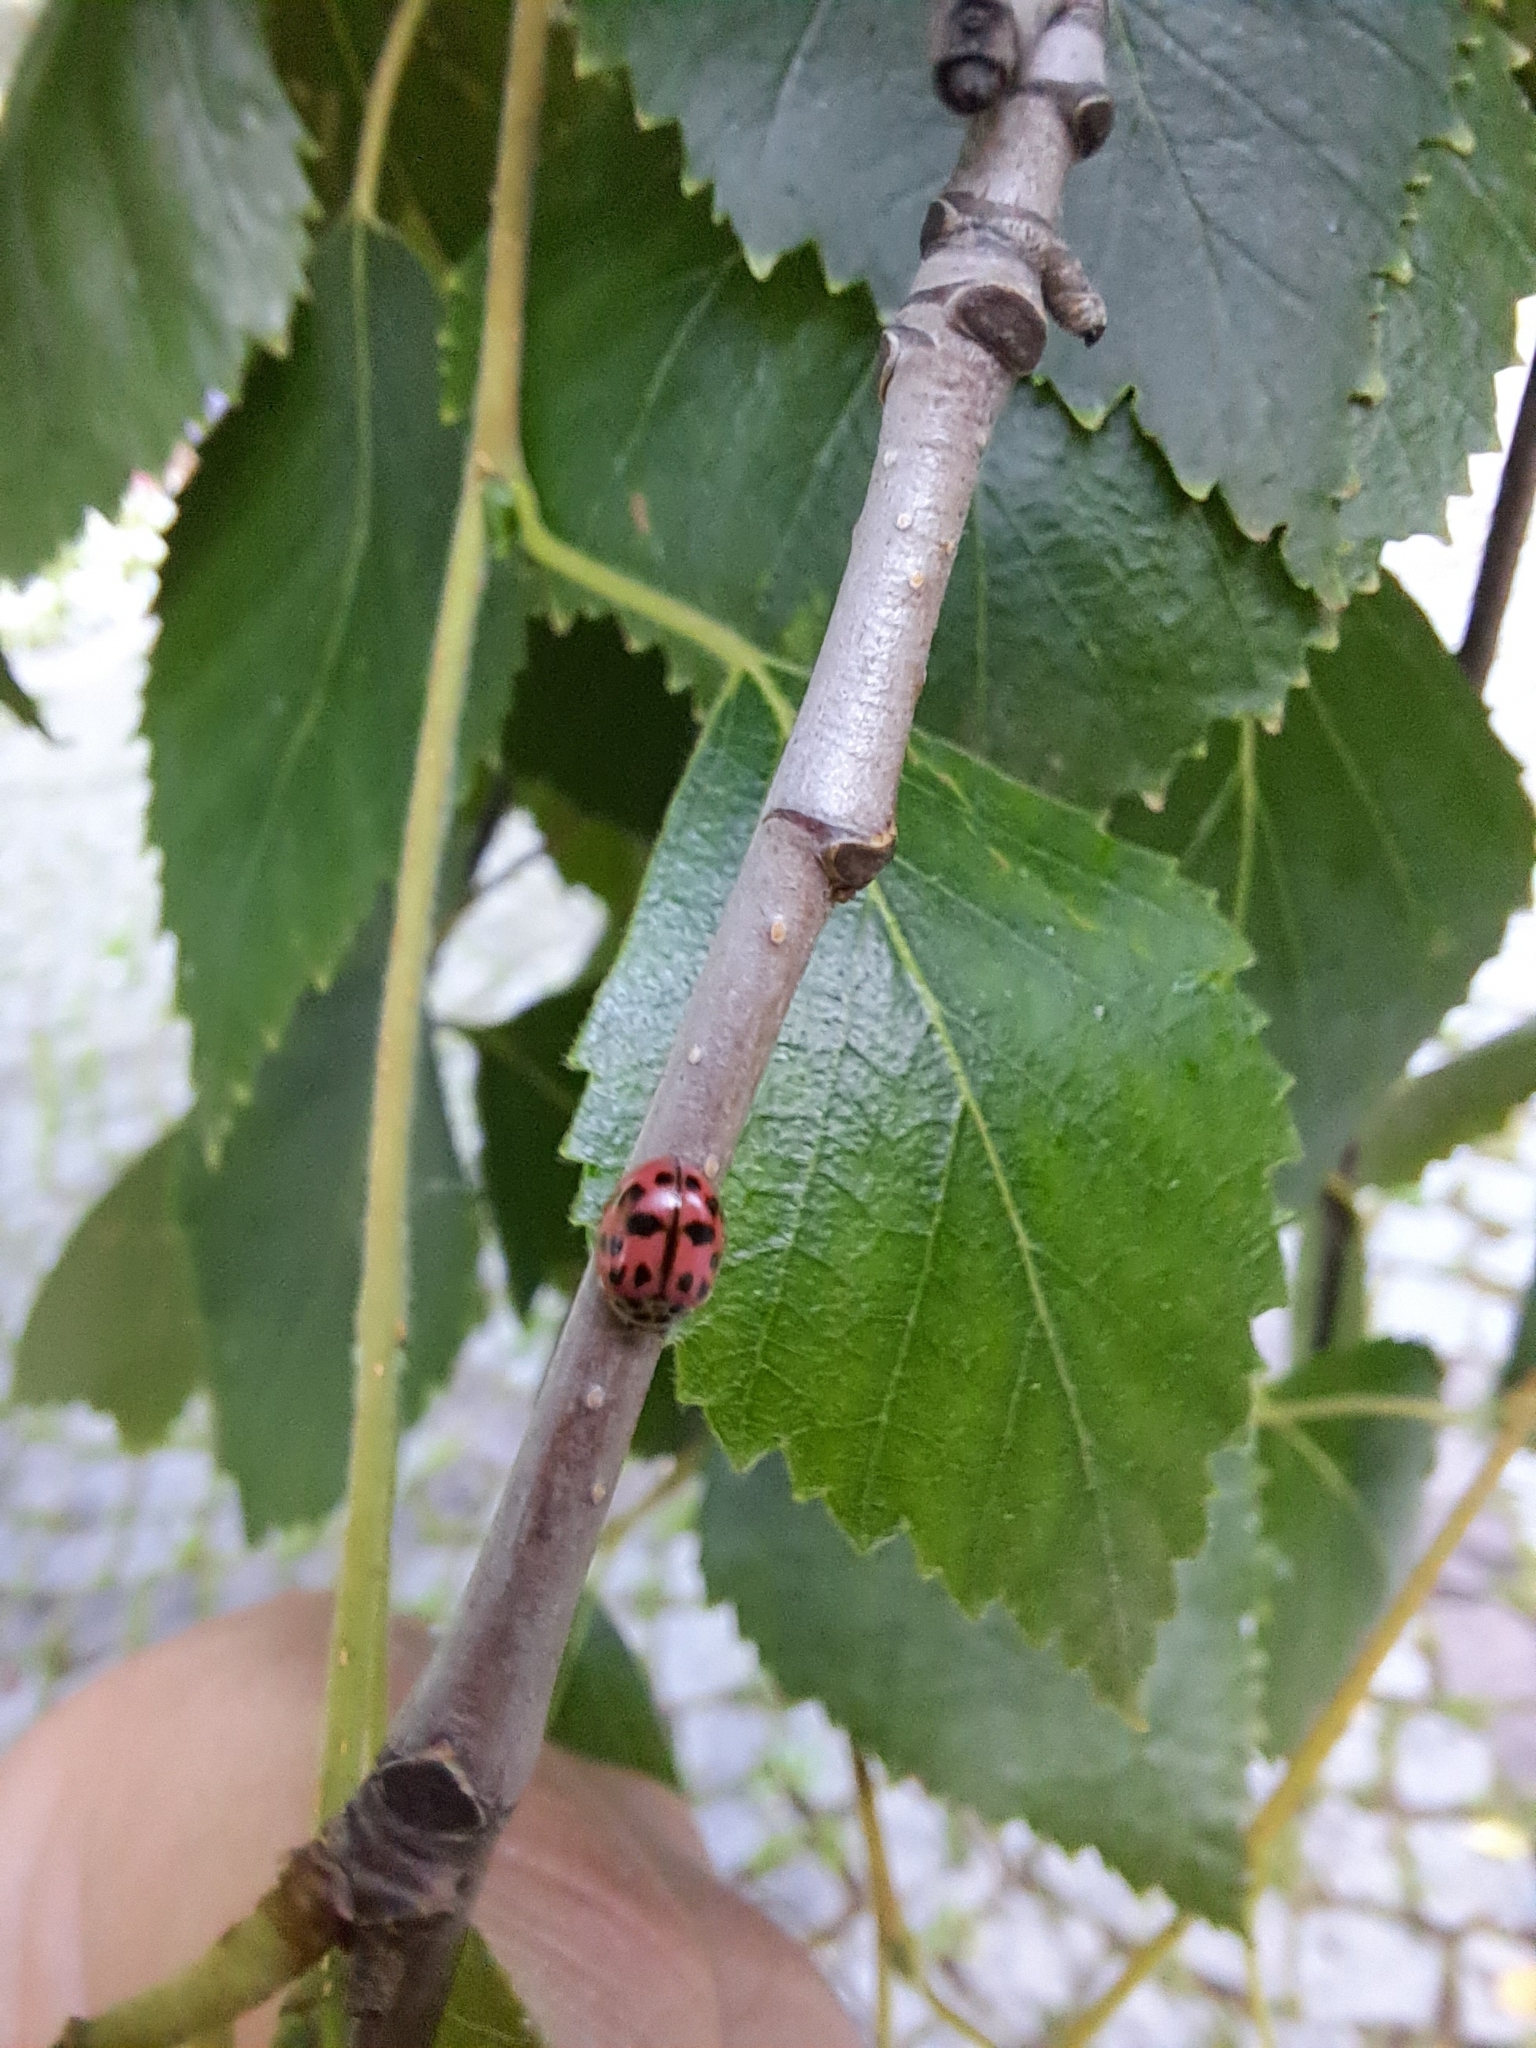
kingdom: Animalia
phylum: Arthropoda
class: Insecta
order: Coleoptera
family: Coccinellidae
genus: Oenopia
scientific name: Oenopia conglobata
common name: Ladybird beetle
